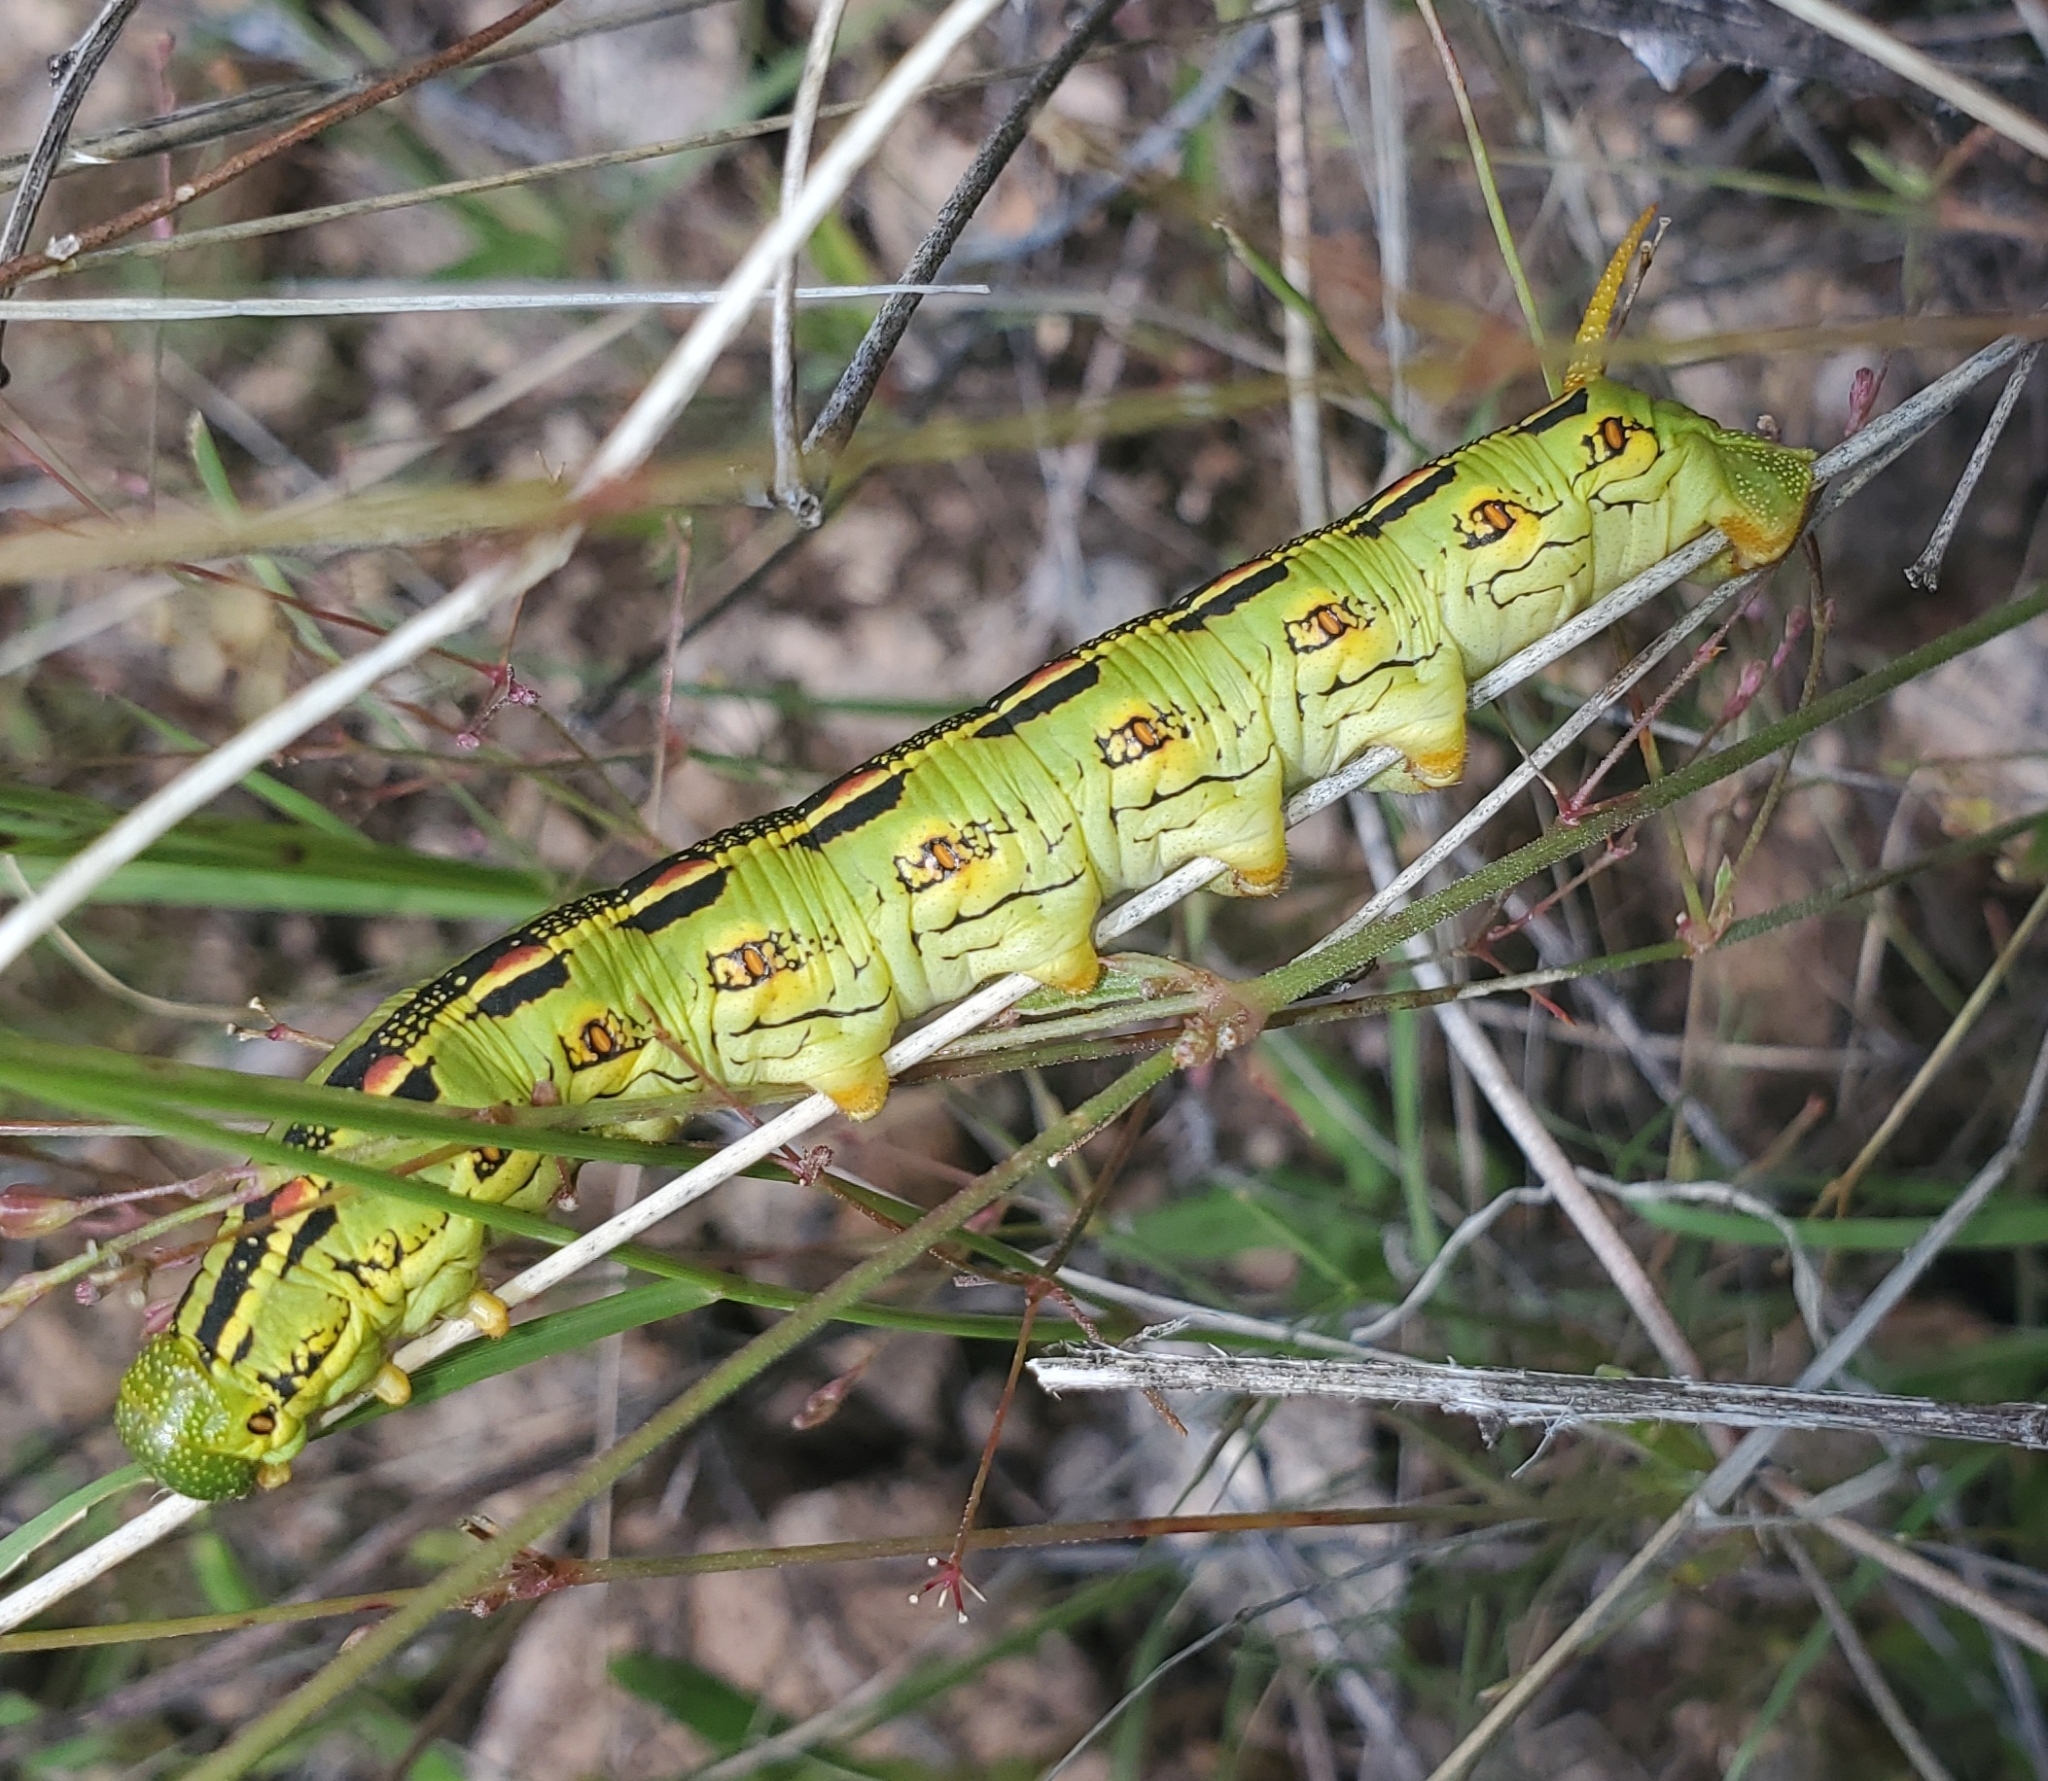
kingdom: Animalia
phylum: Arthropoda
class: Insecta
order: Lepidoptera
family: Sphingidae
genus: Hyles
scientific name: Hyles lineata
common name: White-lined sphinx
